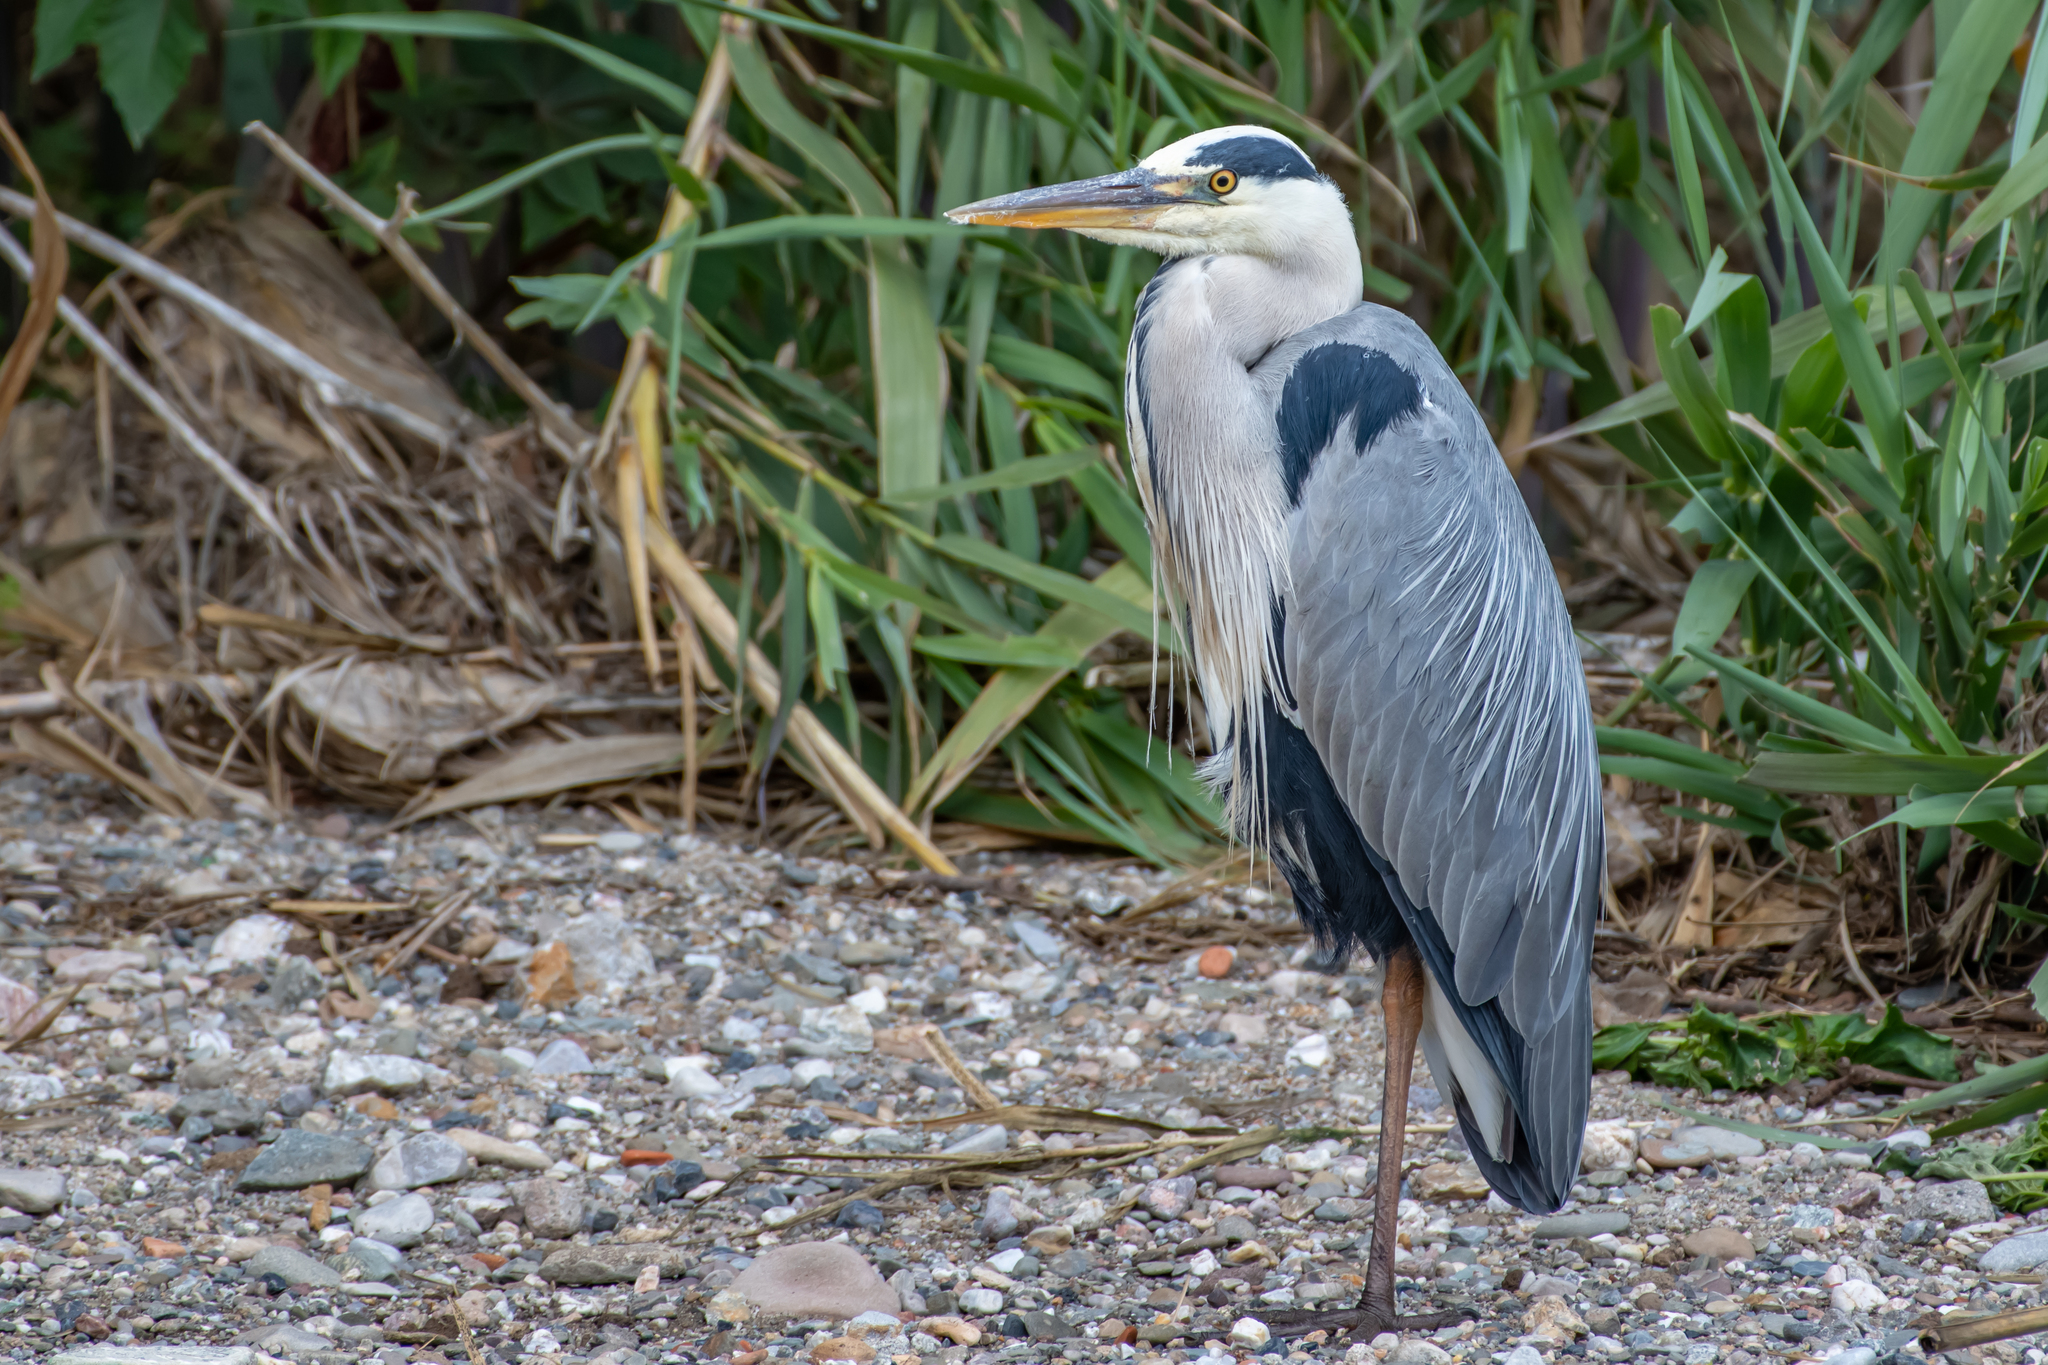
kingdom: Animalia
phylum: Chordata
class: Aves
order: Pelecaniformes
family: Ardeidae
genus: Ardea
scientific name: Ardea cinerea
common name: Grey heron
